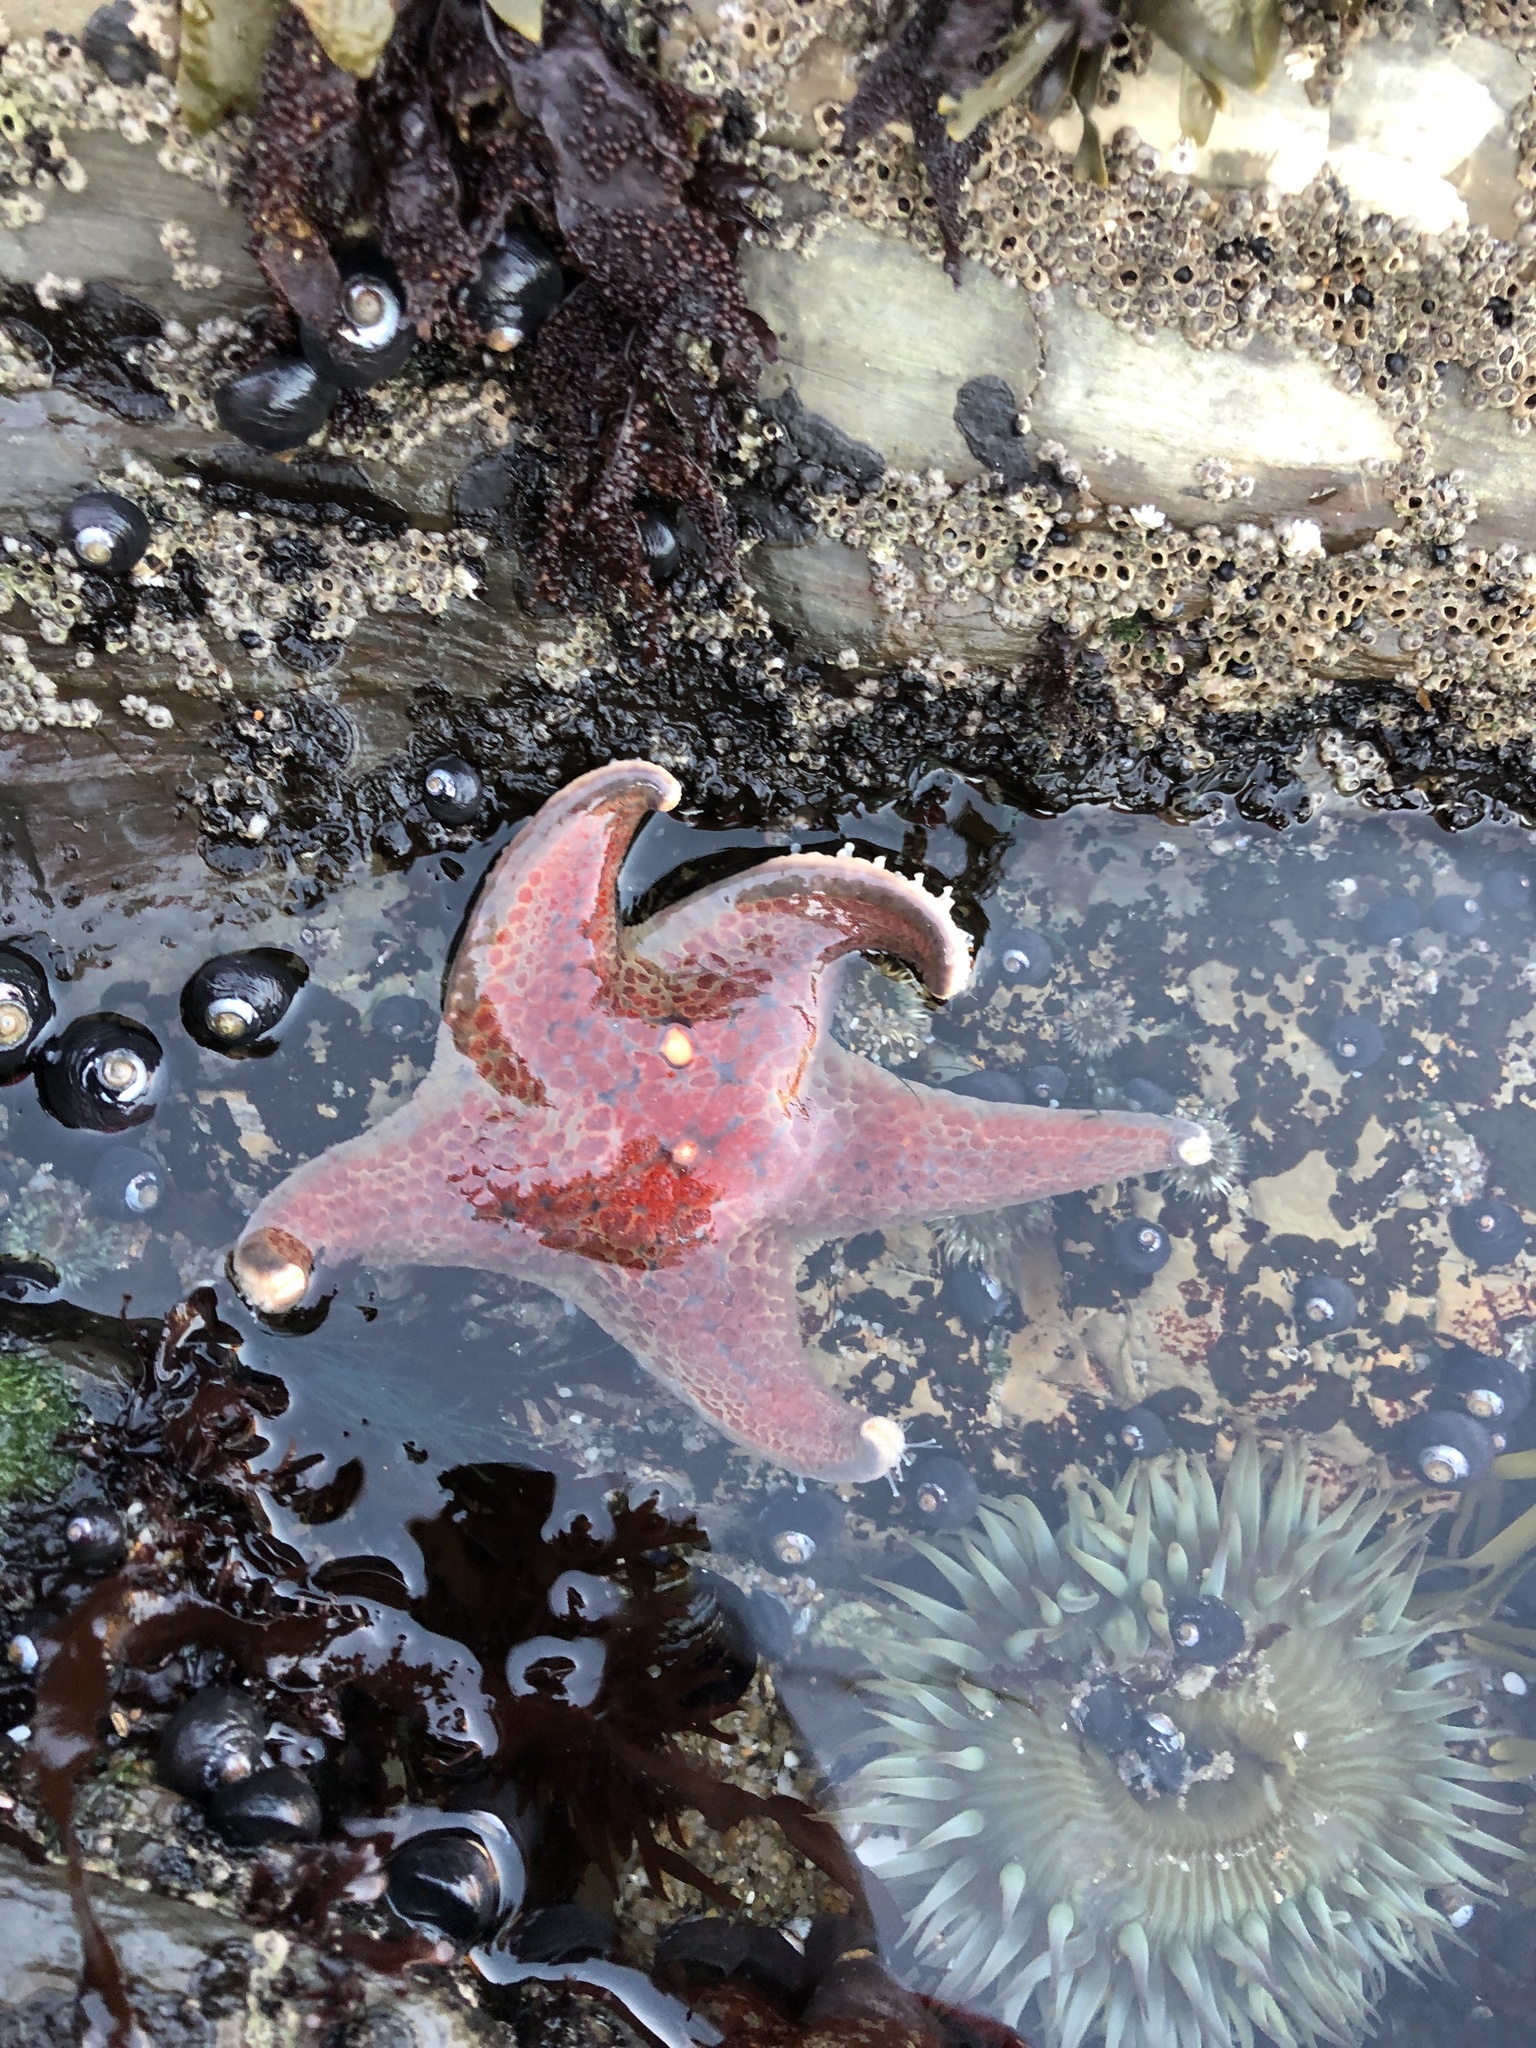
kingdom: Animalia
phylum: Echinodermata
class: Asteroidea
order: Valvatida
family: Asteropseidae
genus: Dermasterias
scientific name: Dermasterias imbricata
